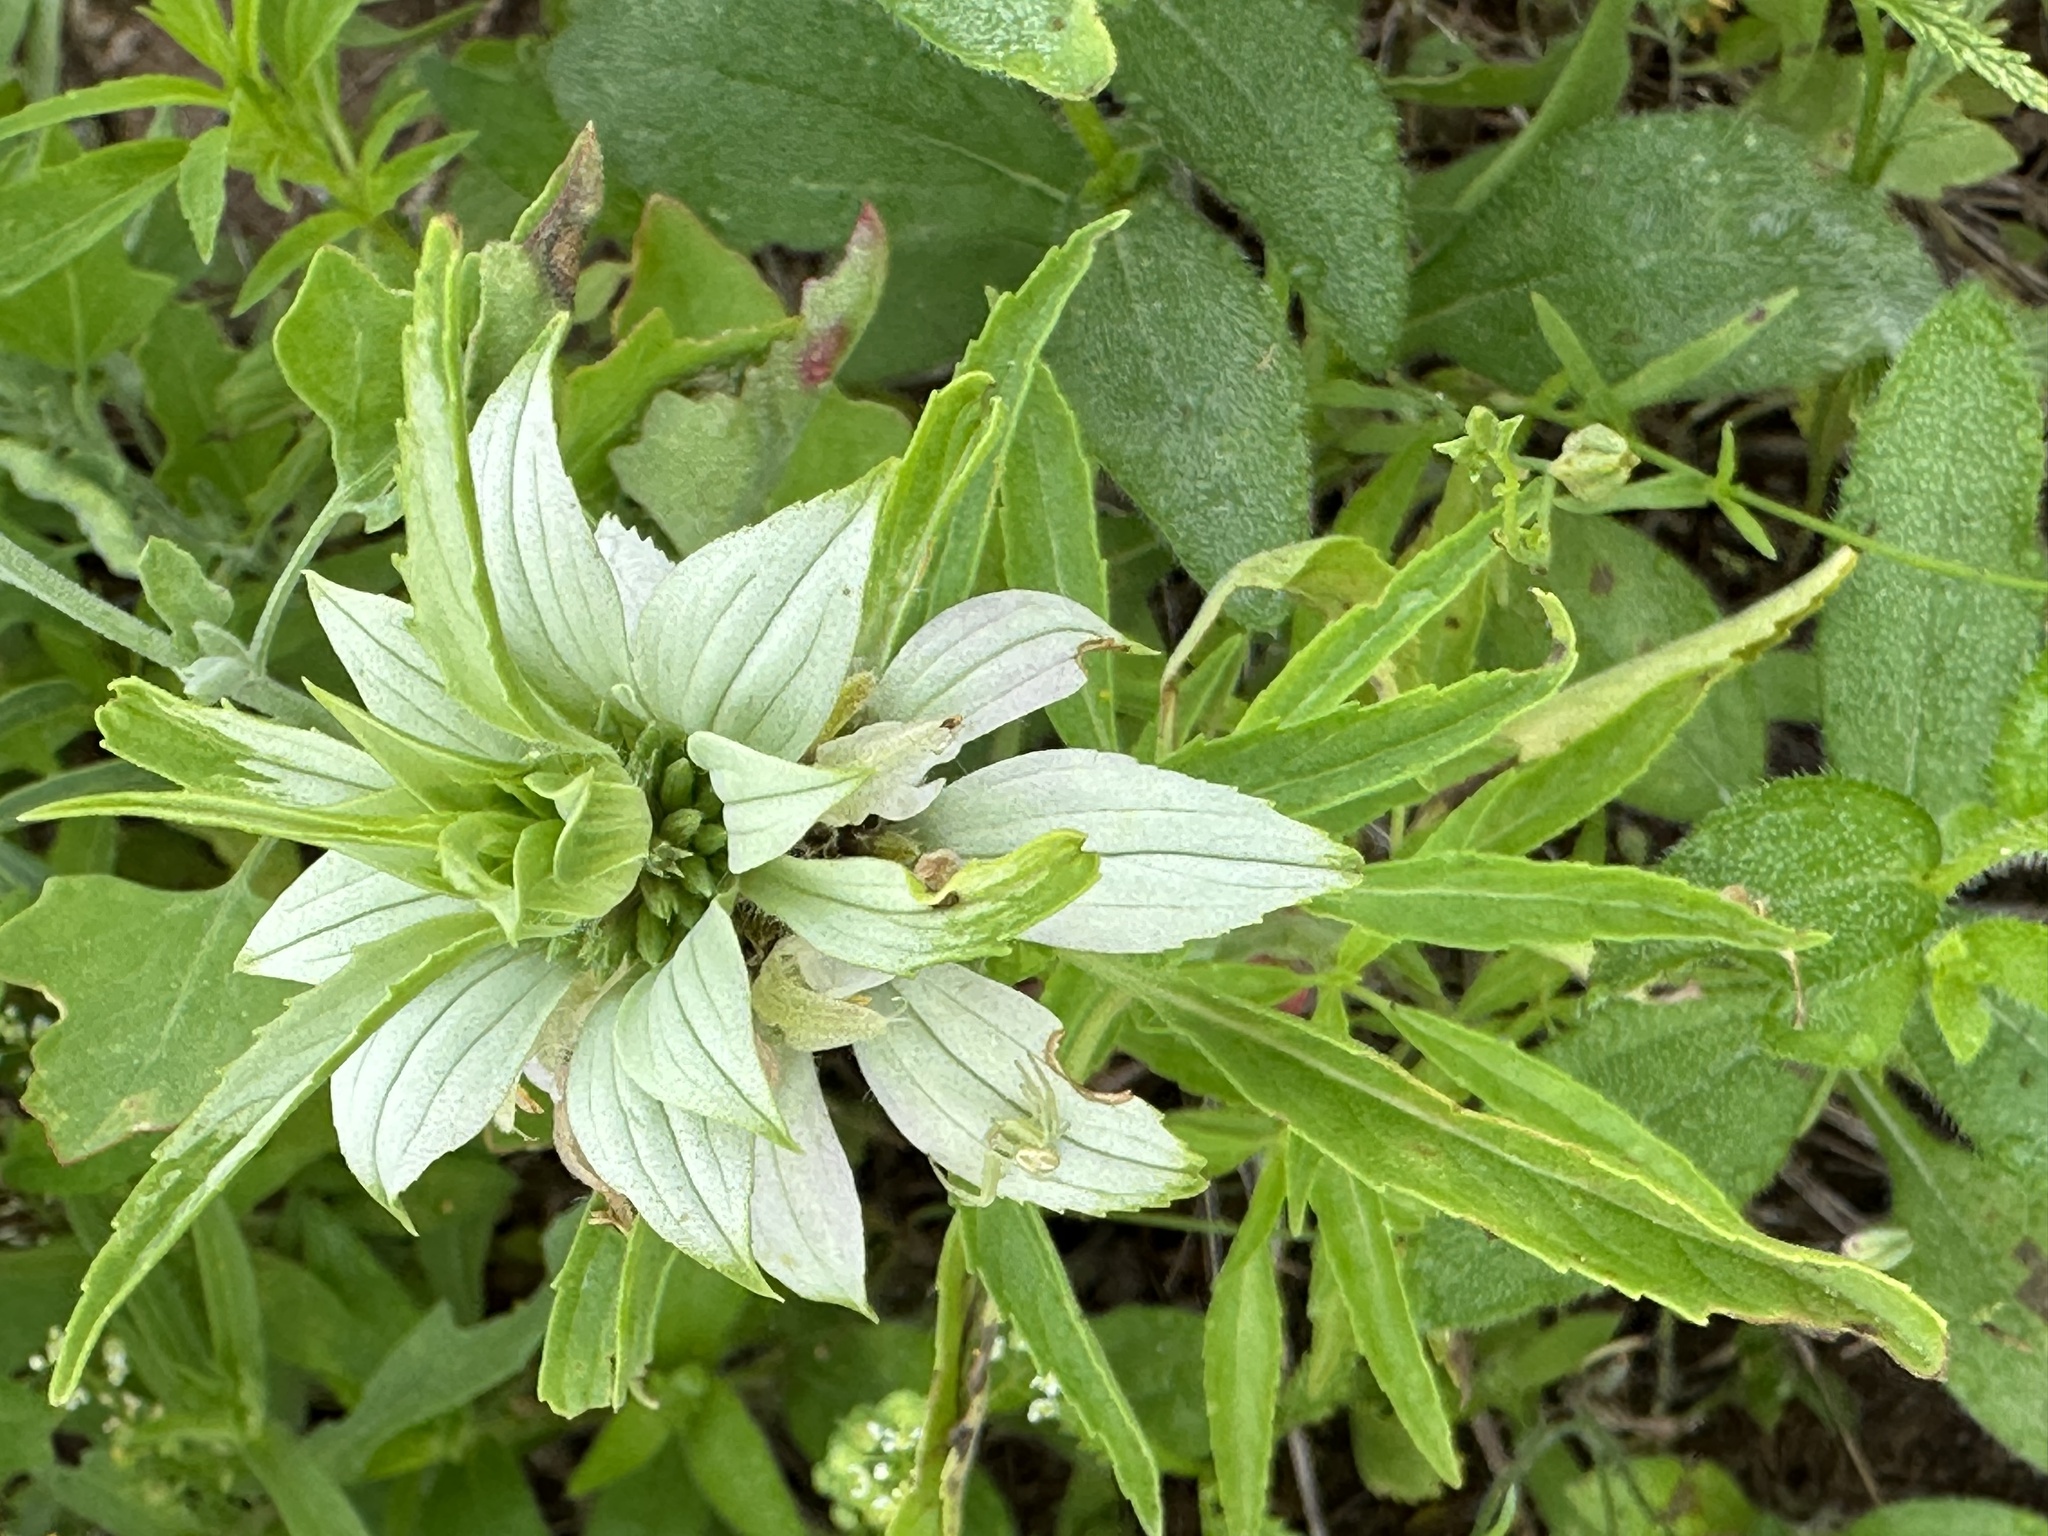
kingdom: Plantae
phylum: Tracheophyta
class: Magnoliopsida
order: Lamiales
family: Lamiaceae
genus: Monarda
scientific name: Monarda punctata
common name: Dotted monarda
